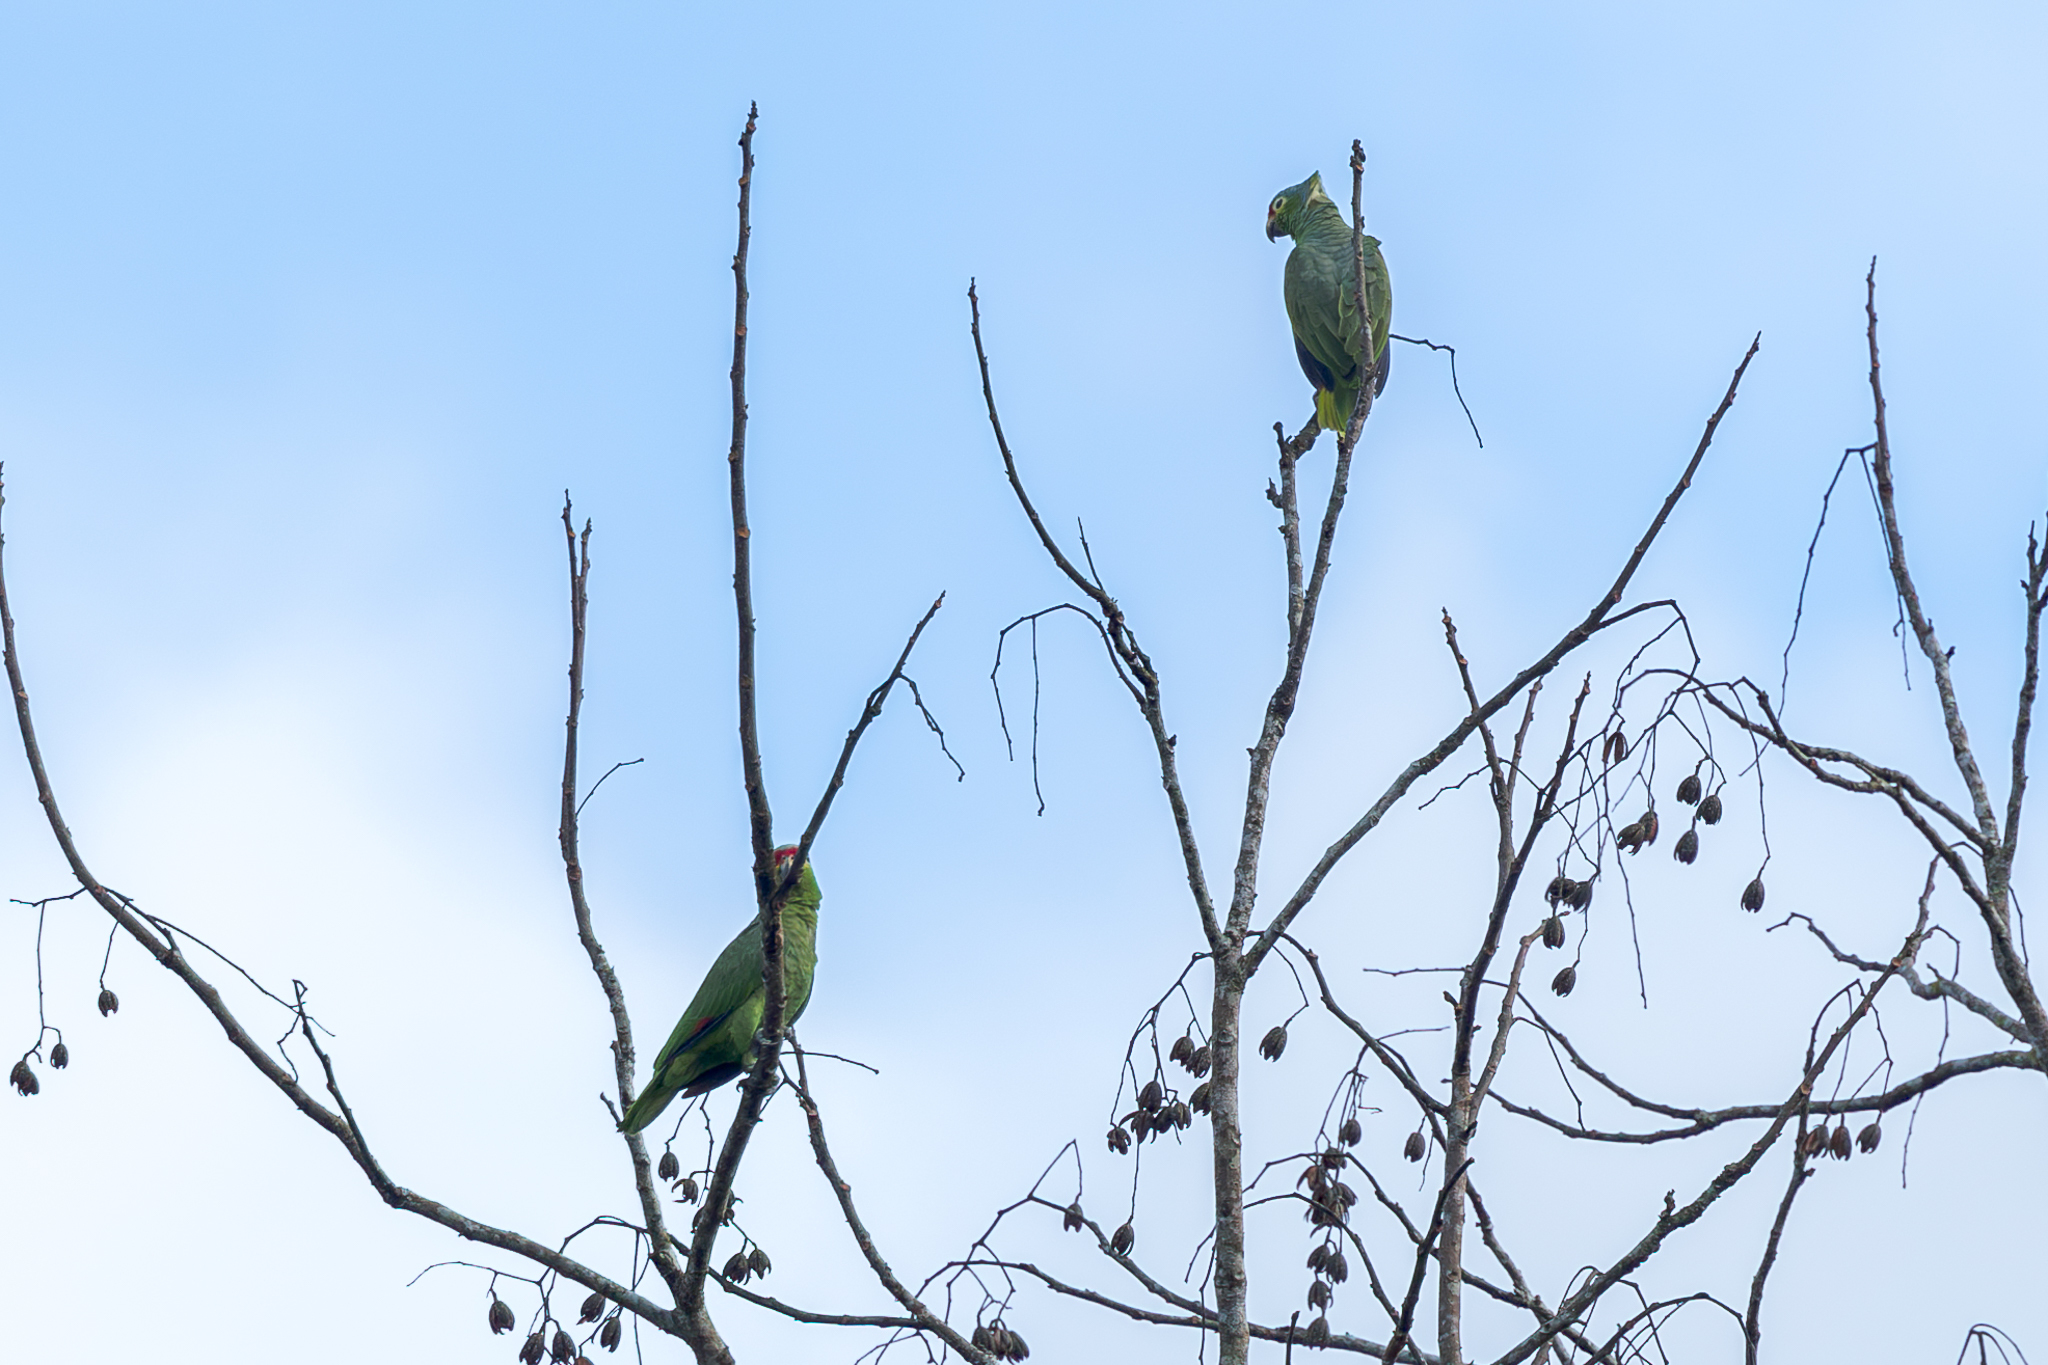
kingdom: Animalia
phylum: Chordata
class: Aves
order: Psittaciformes
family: Psittacidae
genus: Amazona
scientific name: Amazona autumnalis
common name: Red-lored amazon
